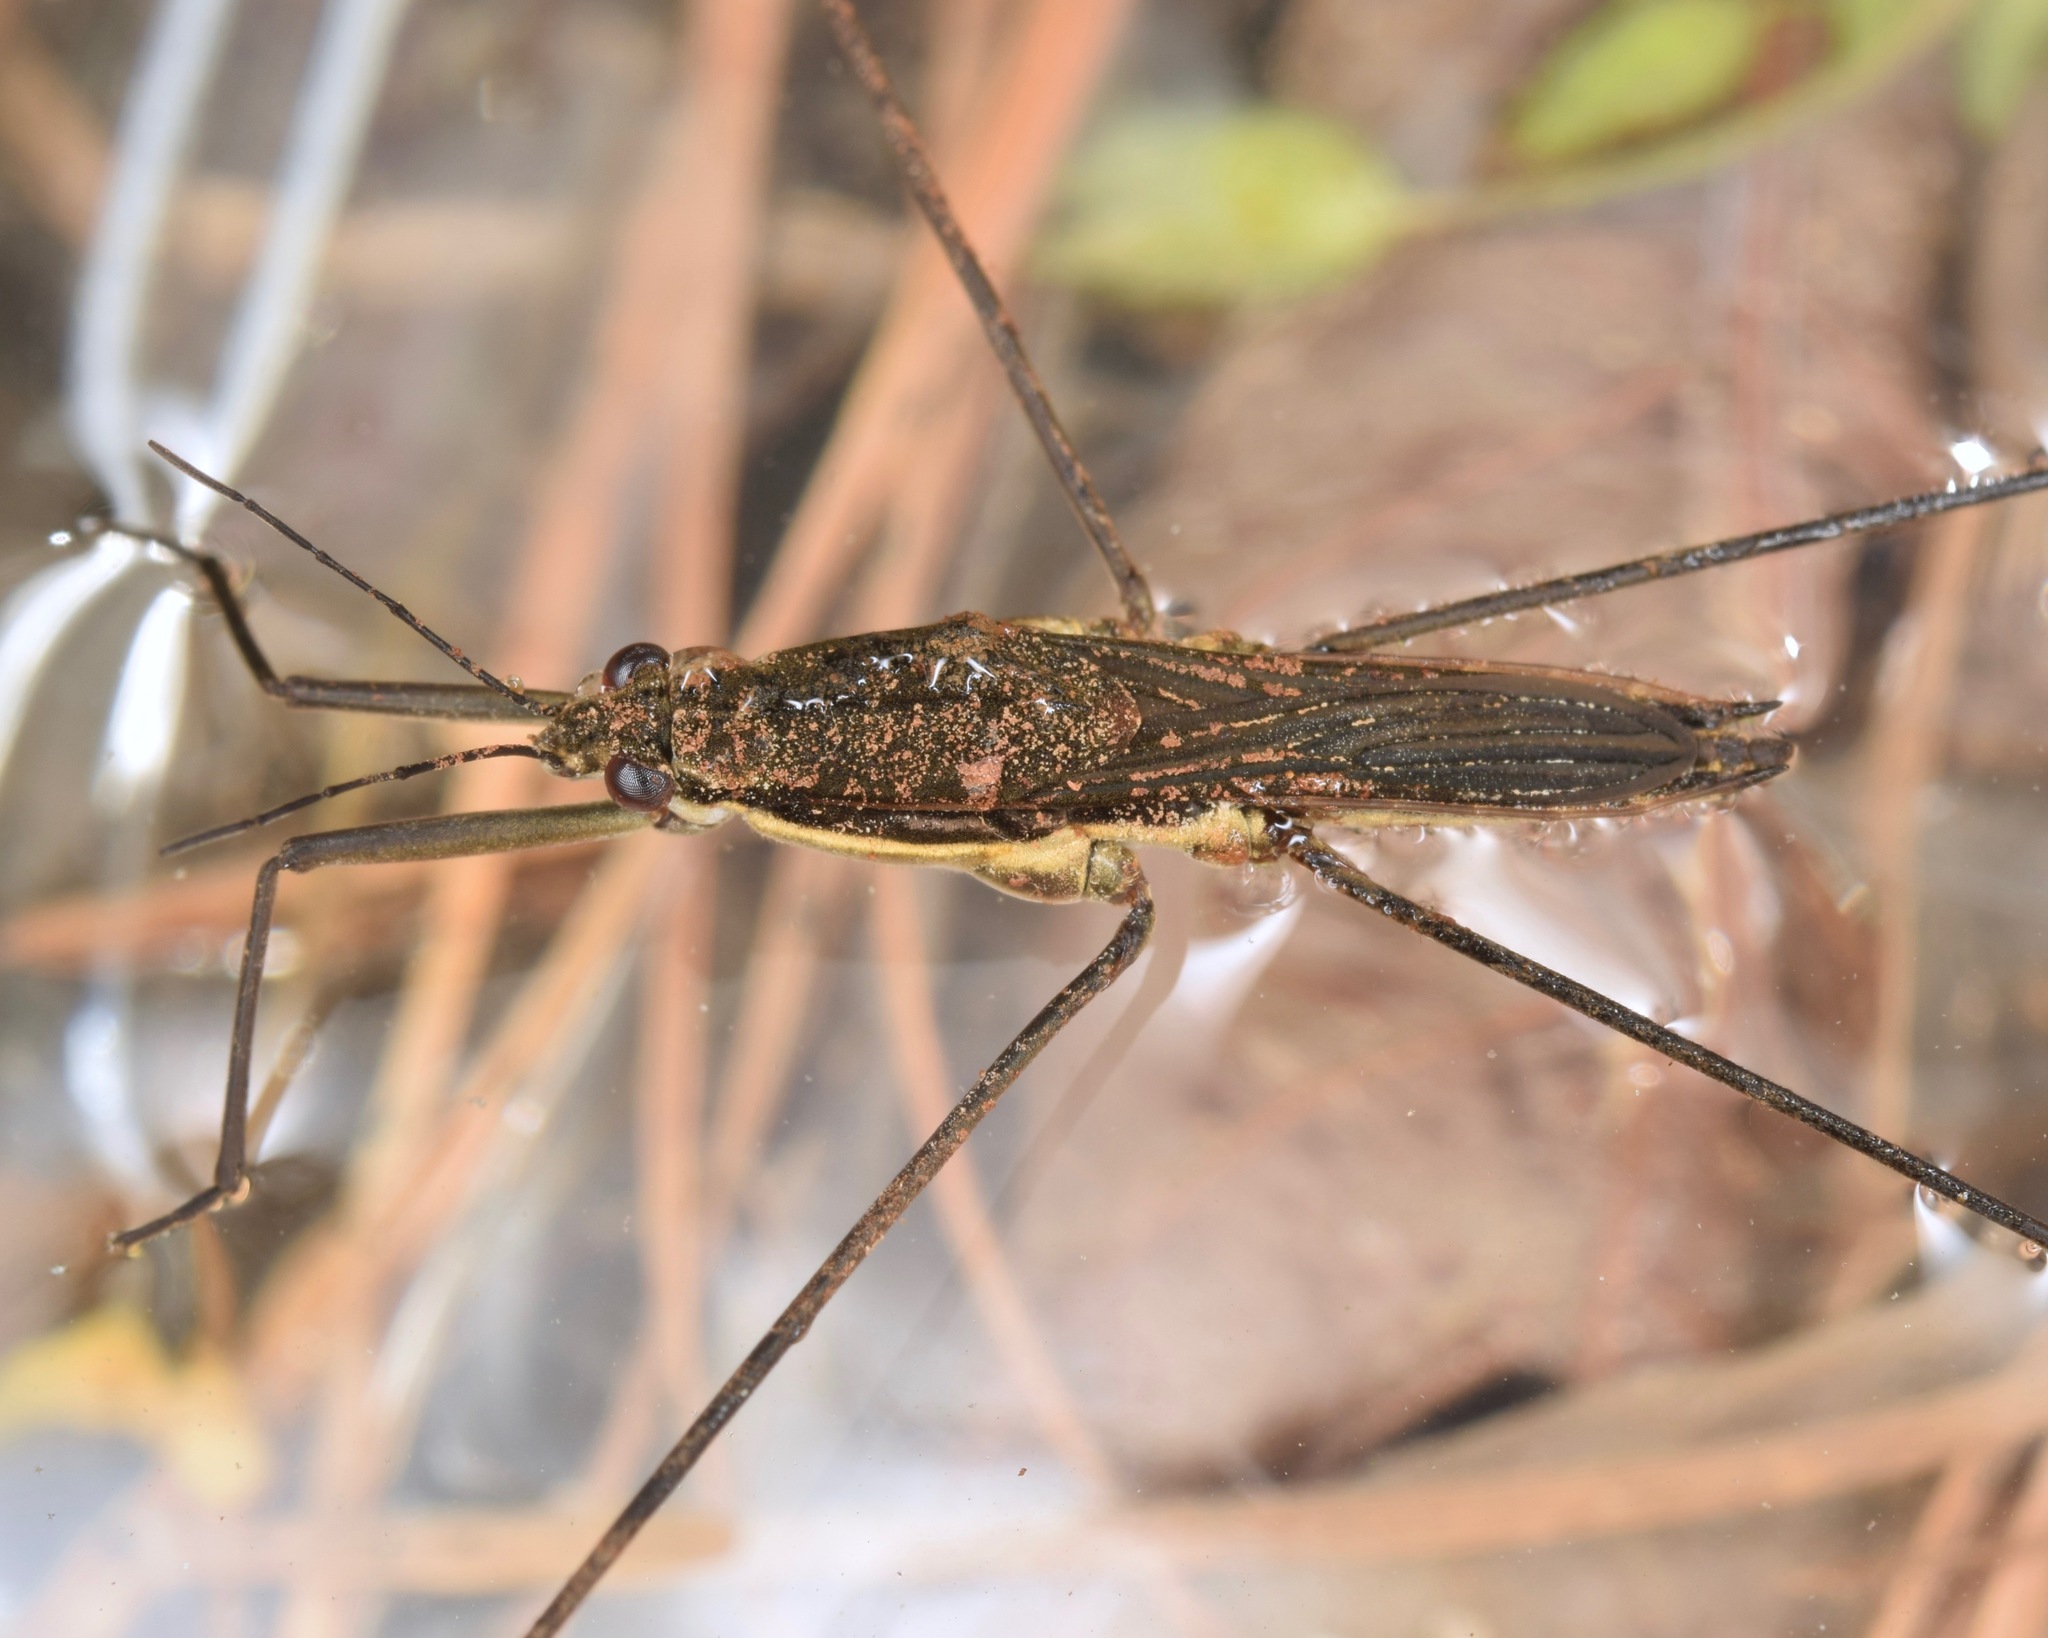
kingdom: Animalia
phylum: Arthropoda
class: Insecta
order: Hemiptera
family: Gerridae
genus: Aquarius
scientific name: Aquarius conformis
